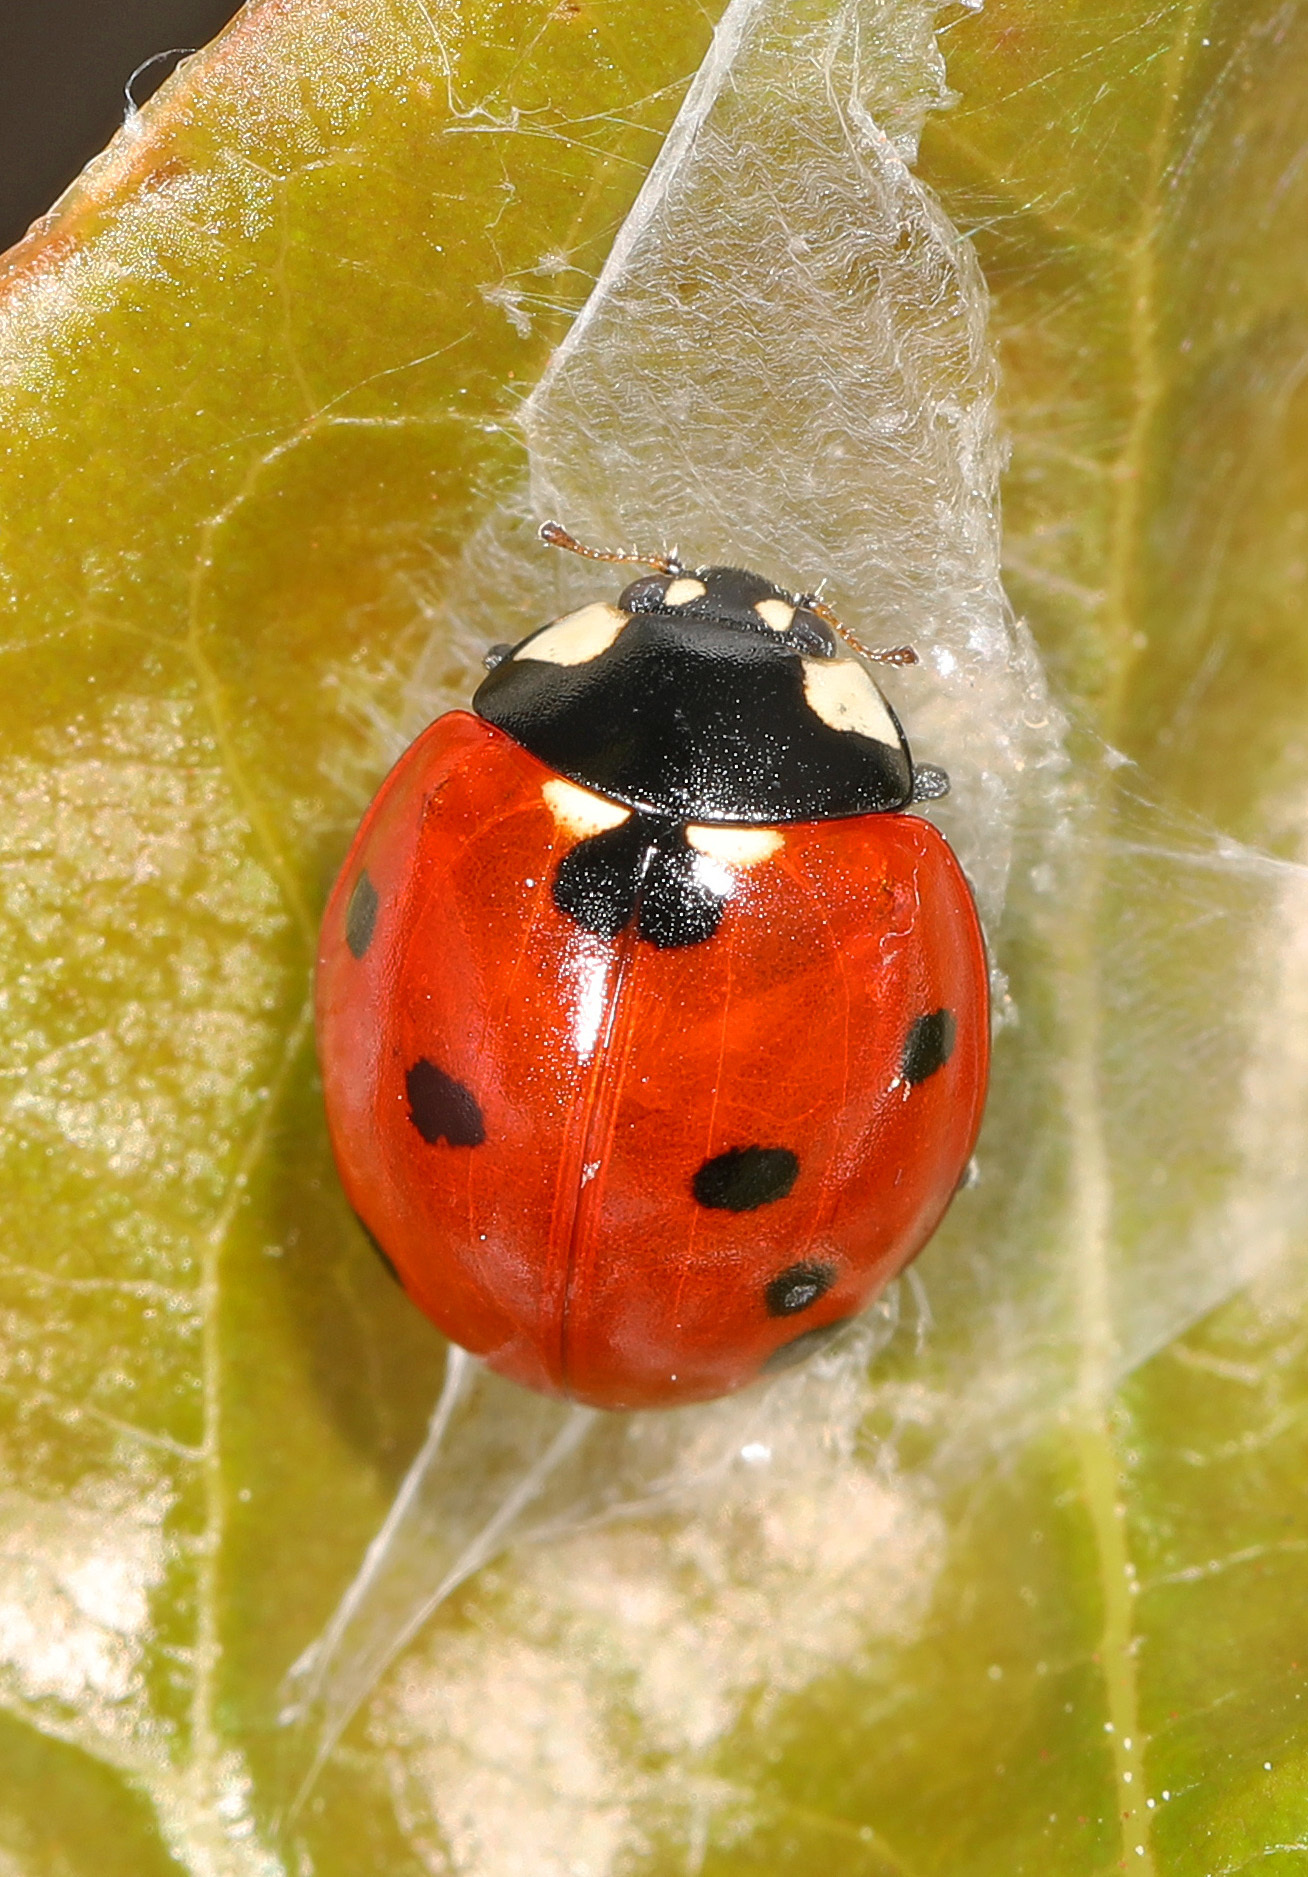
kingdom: Animalia
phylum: Arthropoda
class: Insecta
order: Coleoptera
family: Coccinellidae
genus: Coccinella
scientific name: Coccinella septempunctata
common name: Sevenspotted lady beetle
